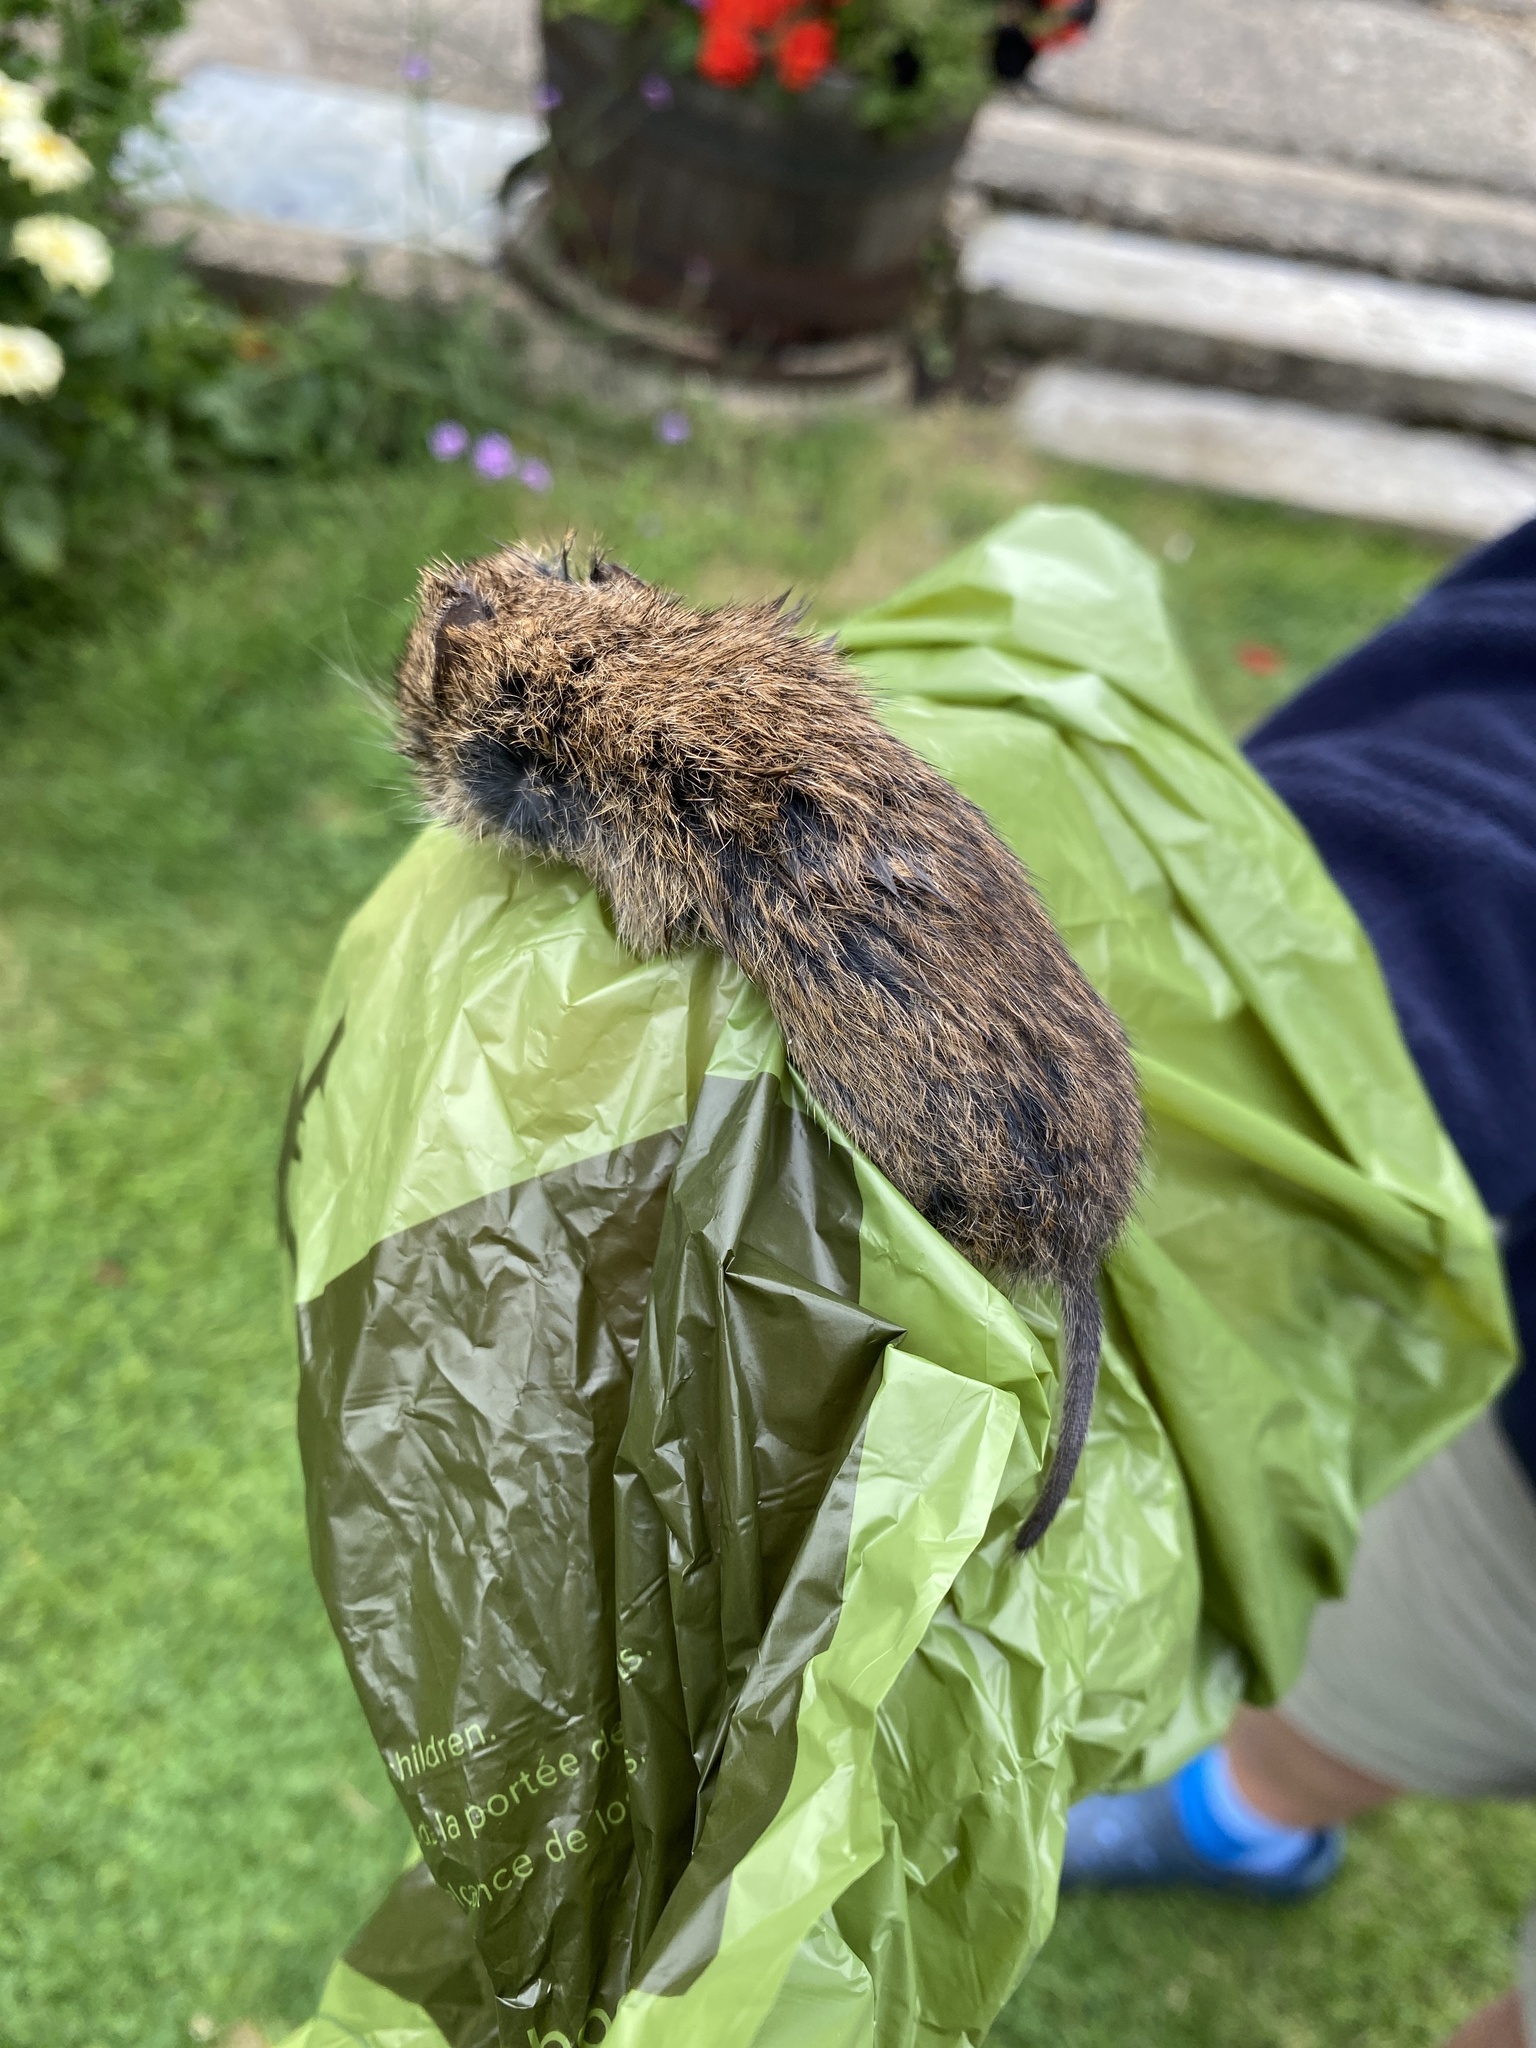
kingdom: Animalia
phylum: Chordata
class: Mammalia
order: Rodentia
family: Cricetidae
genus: Microtus
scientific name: Microtus agrestis
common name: Field vole
